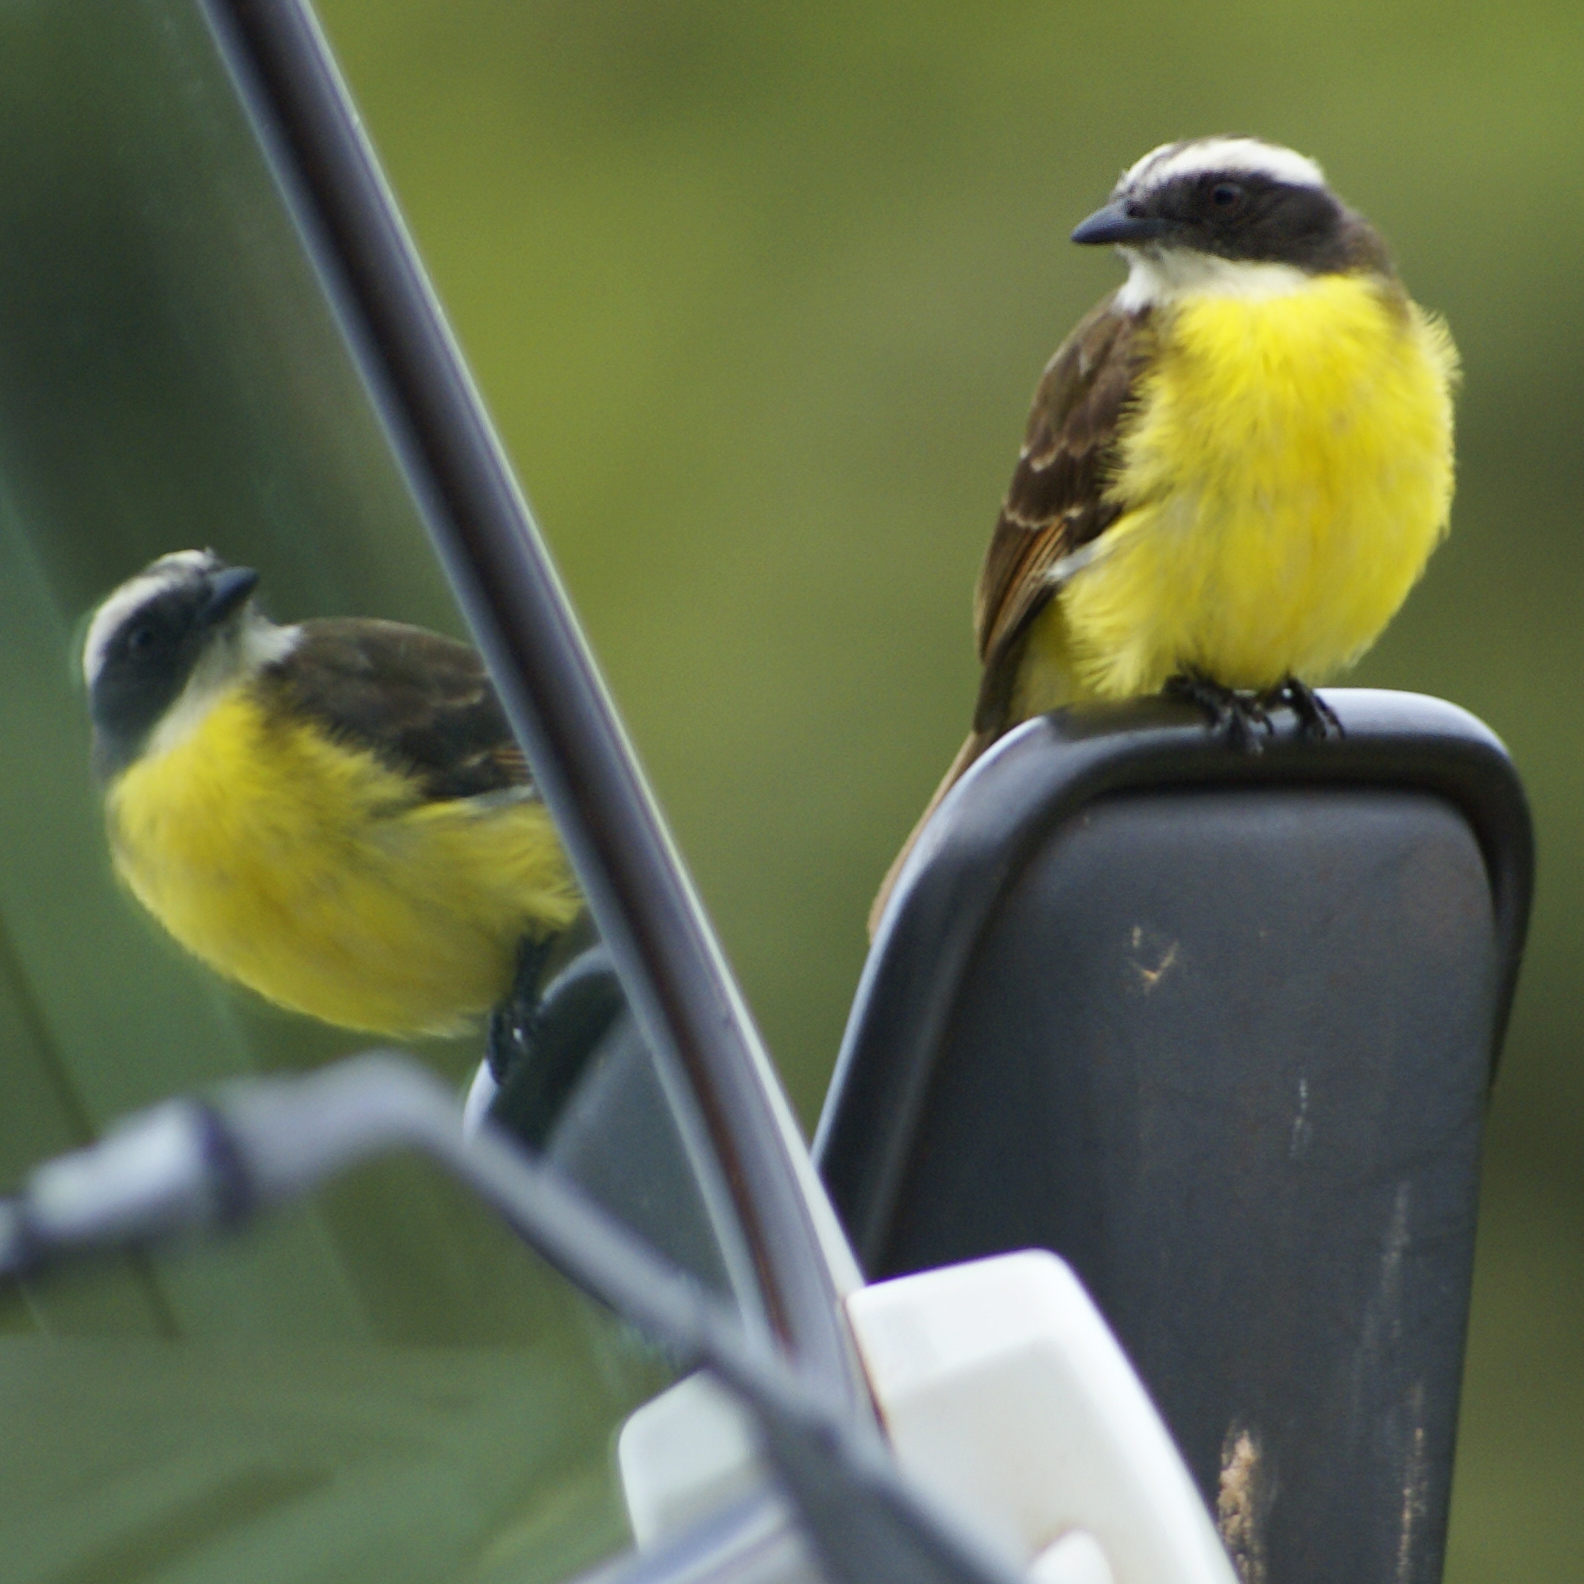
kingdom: Animalia
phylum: Chordata
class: Aves
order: Passeriformes
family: Tyrannidae
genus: Myiozetetes
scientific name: Myiozetetes cayanensis
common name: Rusty-margined flycatcher
